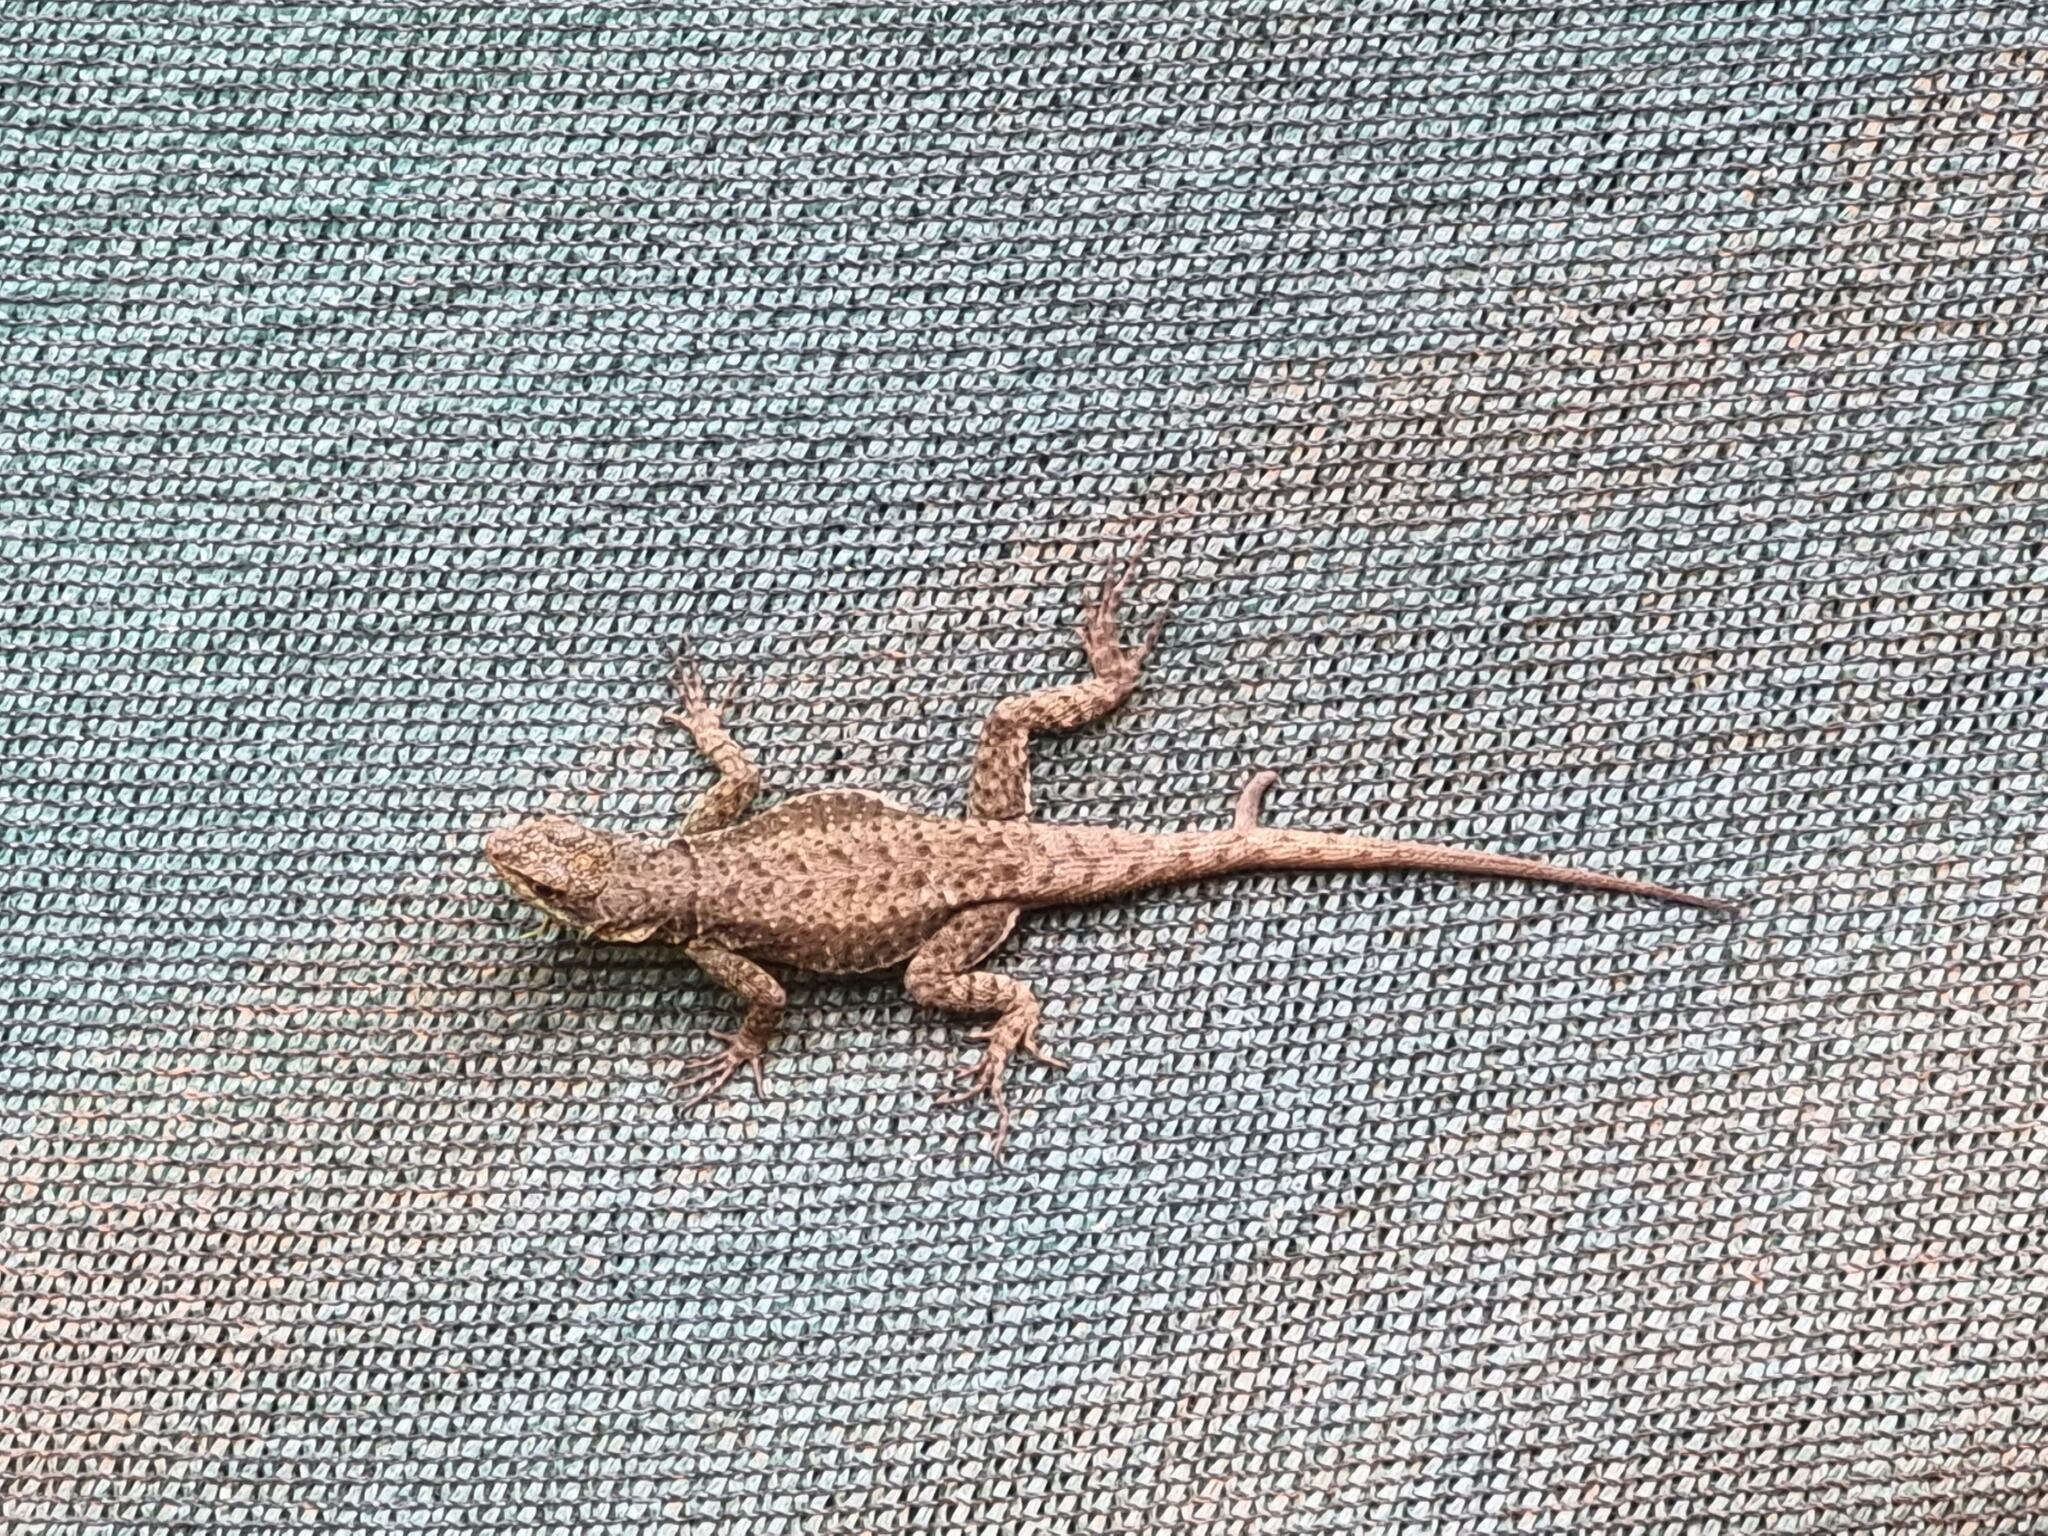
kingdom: Animalia
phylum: Chordata
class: Squamata
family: Tropiduridae
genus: Tropidurus
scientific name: Tropidurus catalanensis
